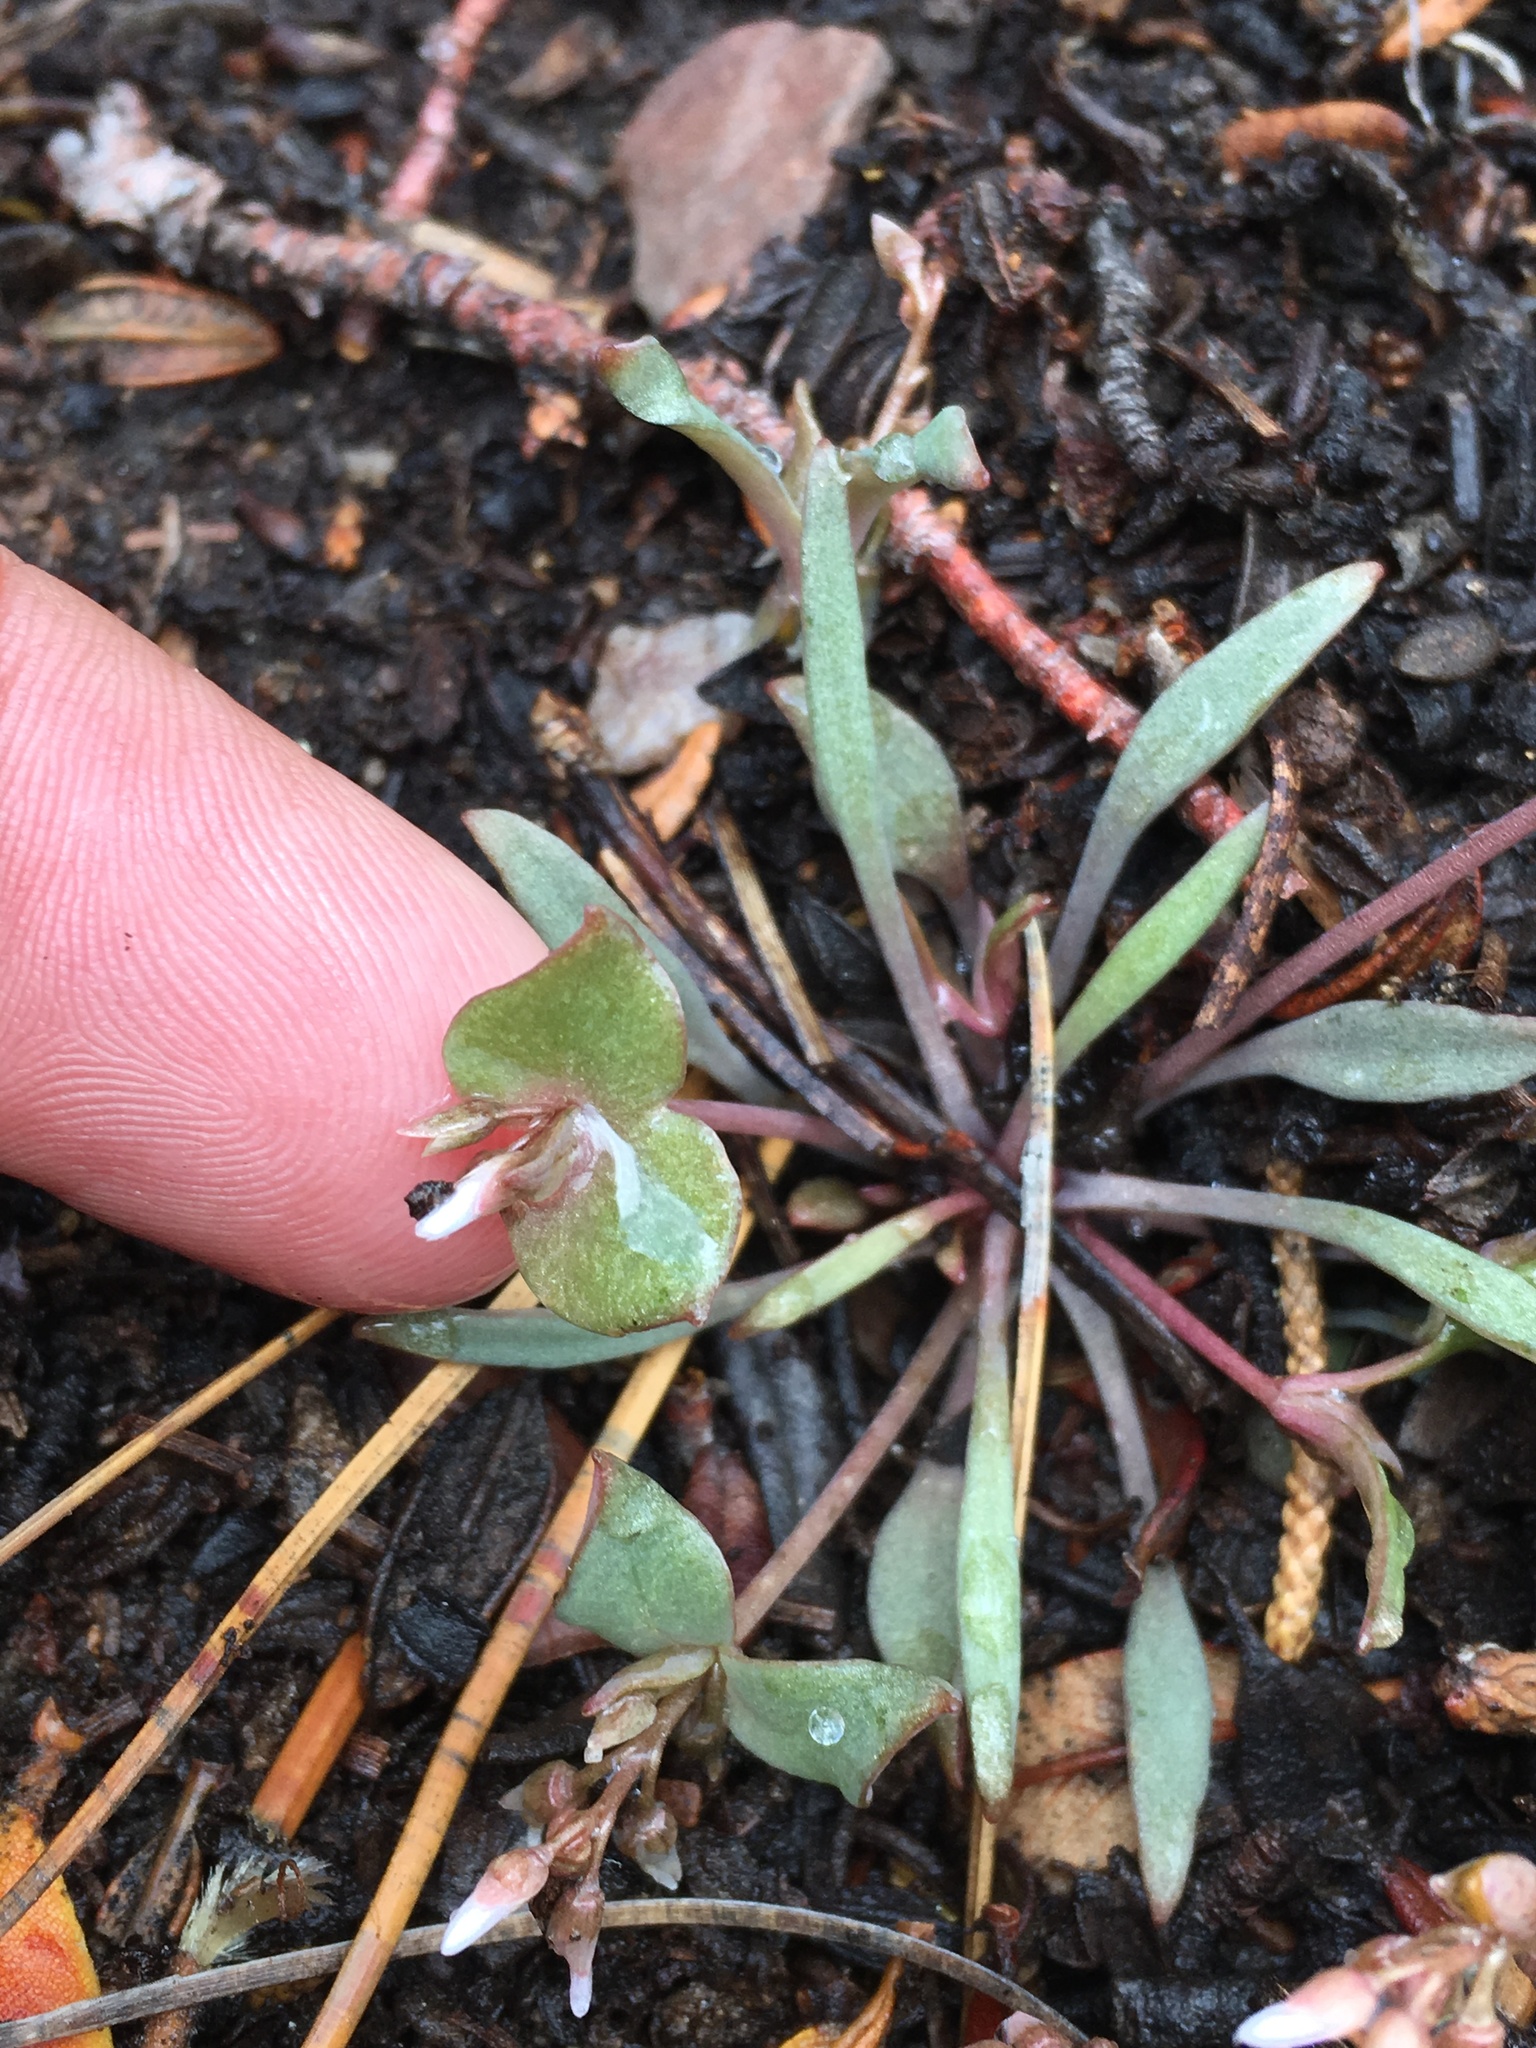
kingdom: Plantae
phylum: Tracheophyta
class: Magnoliopsida
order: Caryophyllales
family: Montiaceae
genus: Claytonia
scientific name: Claytonia parviflora
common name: Indian-lettuce
